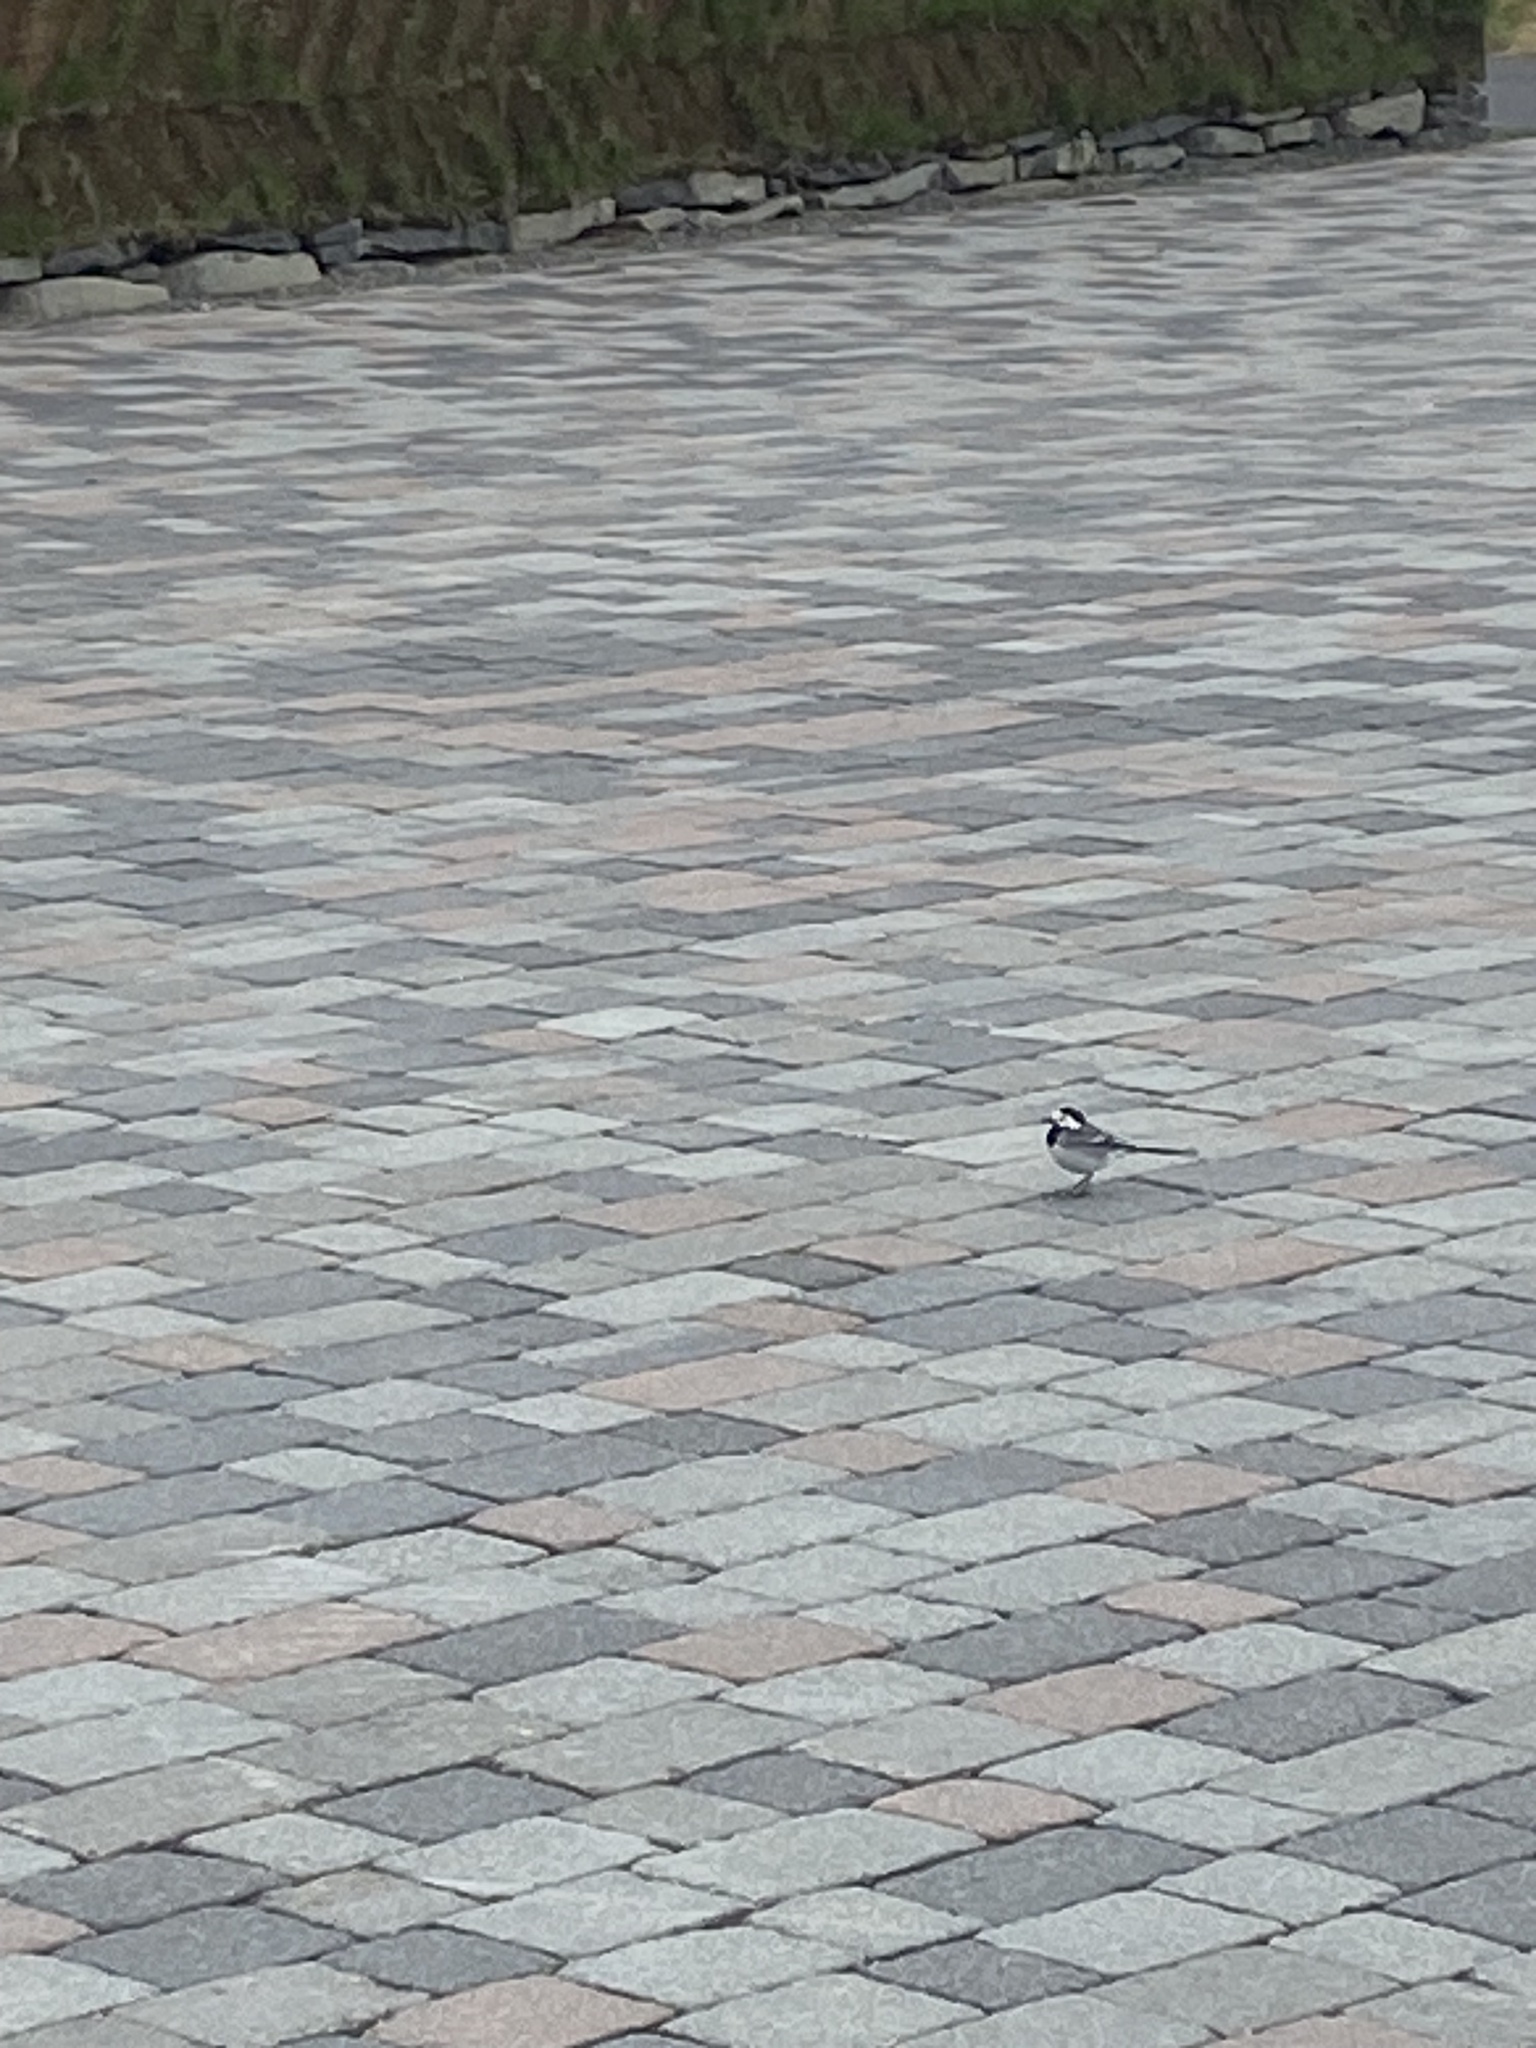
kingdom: Animalia
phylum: Chordata
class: Aves
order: Passeriformes
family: Motacillidae
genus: Motacilla
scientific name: Motacilla alba
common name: White wagtail
